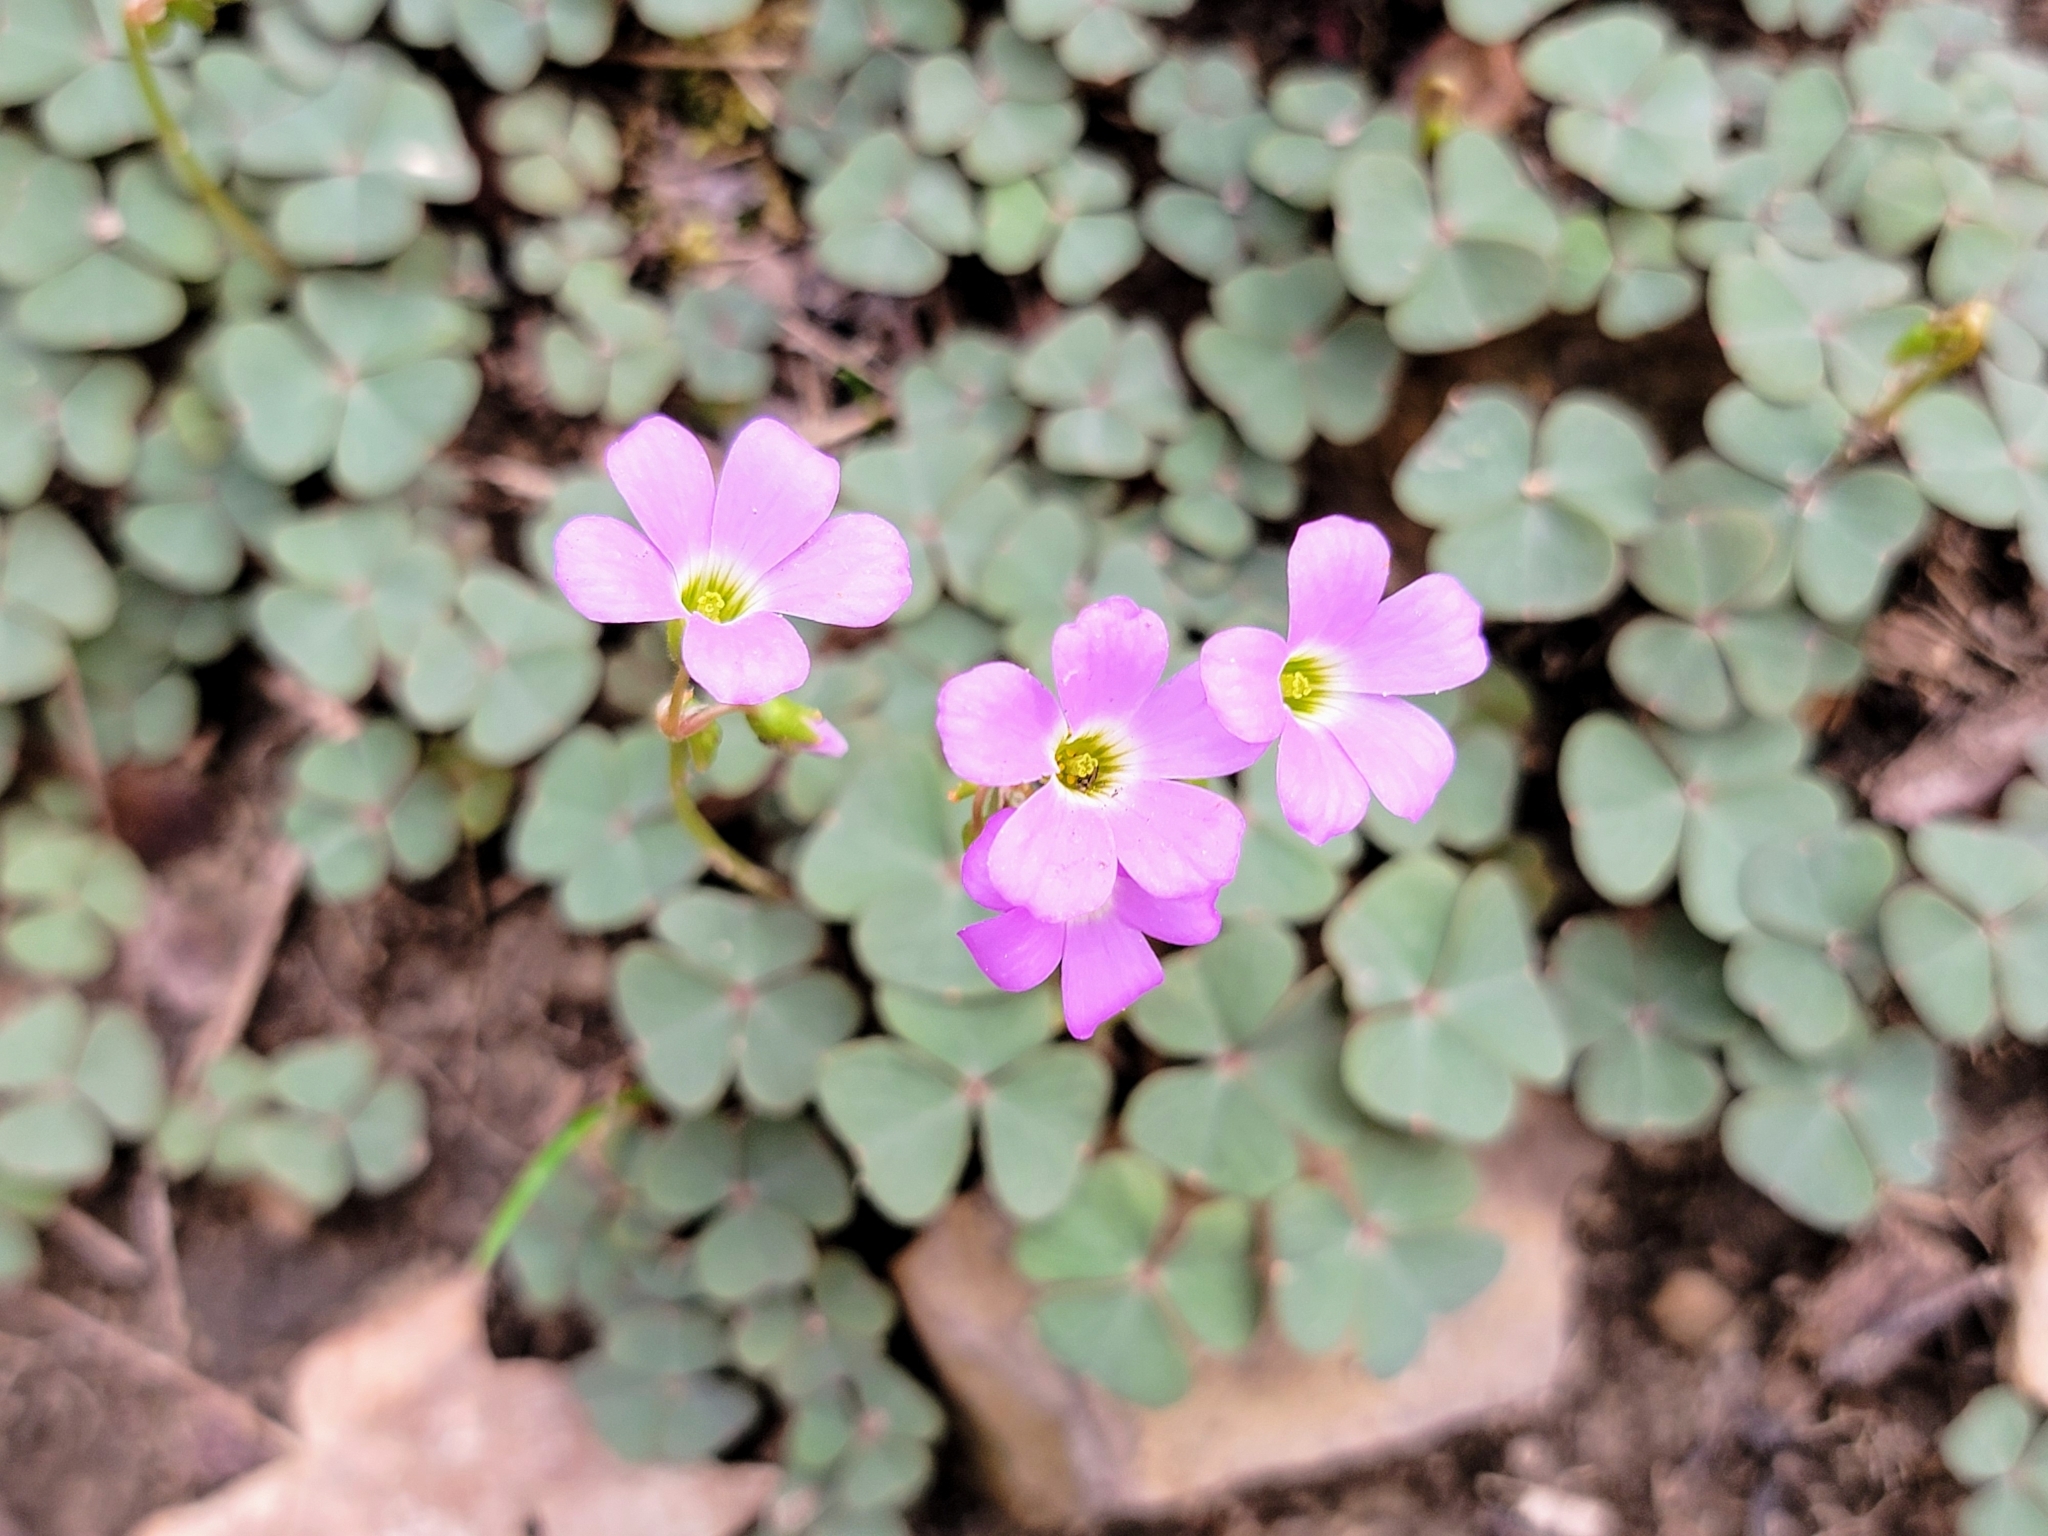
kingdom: Plantae
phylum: Tracheophyta
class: Magnoliopsida
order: Oxalidales
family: Oxalidaceae
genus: Oxalis
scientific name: Oxalis violacea
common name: Violet wood-sorrel
